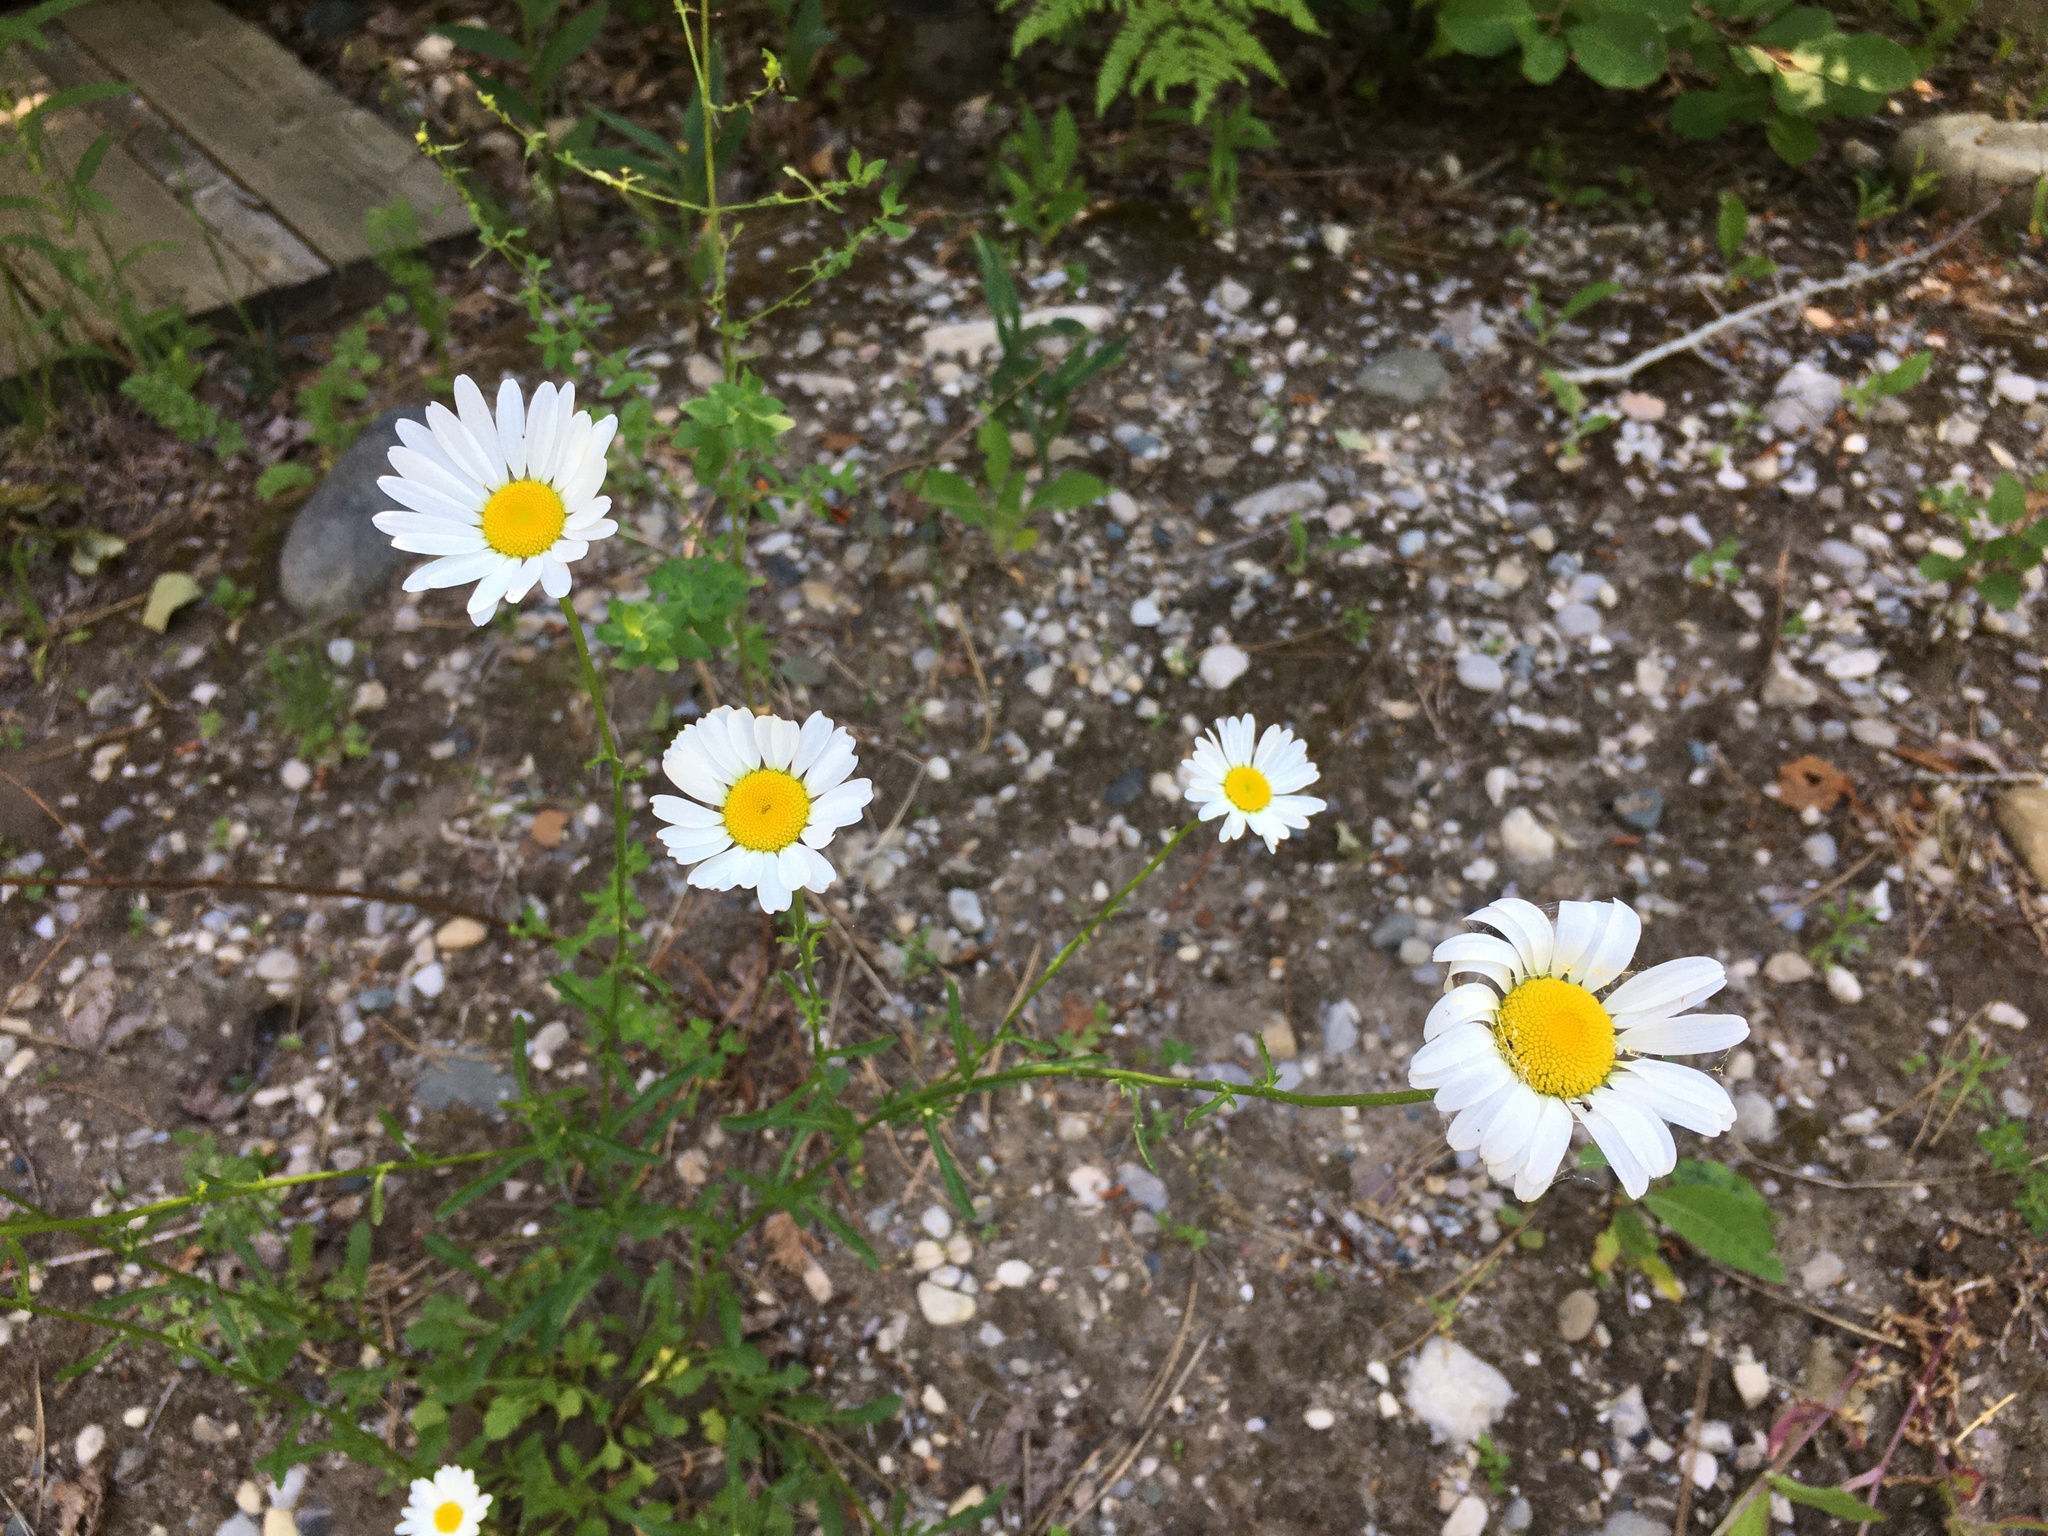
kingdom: Plantae
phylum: Tracheophyta
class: Magnoliopsida
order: Asterales
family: Asteraceae
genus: Leucanthemum
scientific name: Leucanthemum vulgare
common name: Oxeye daisy
